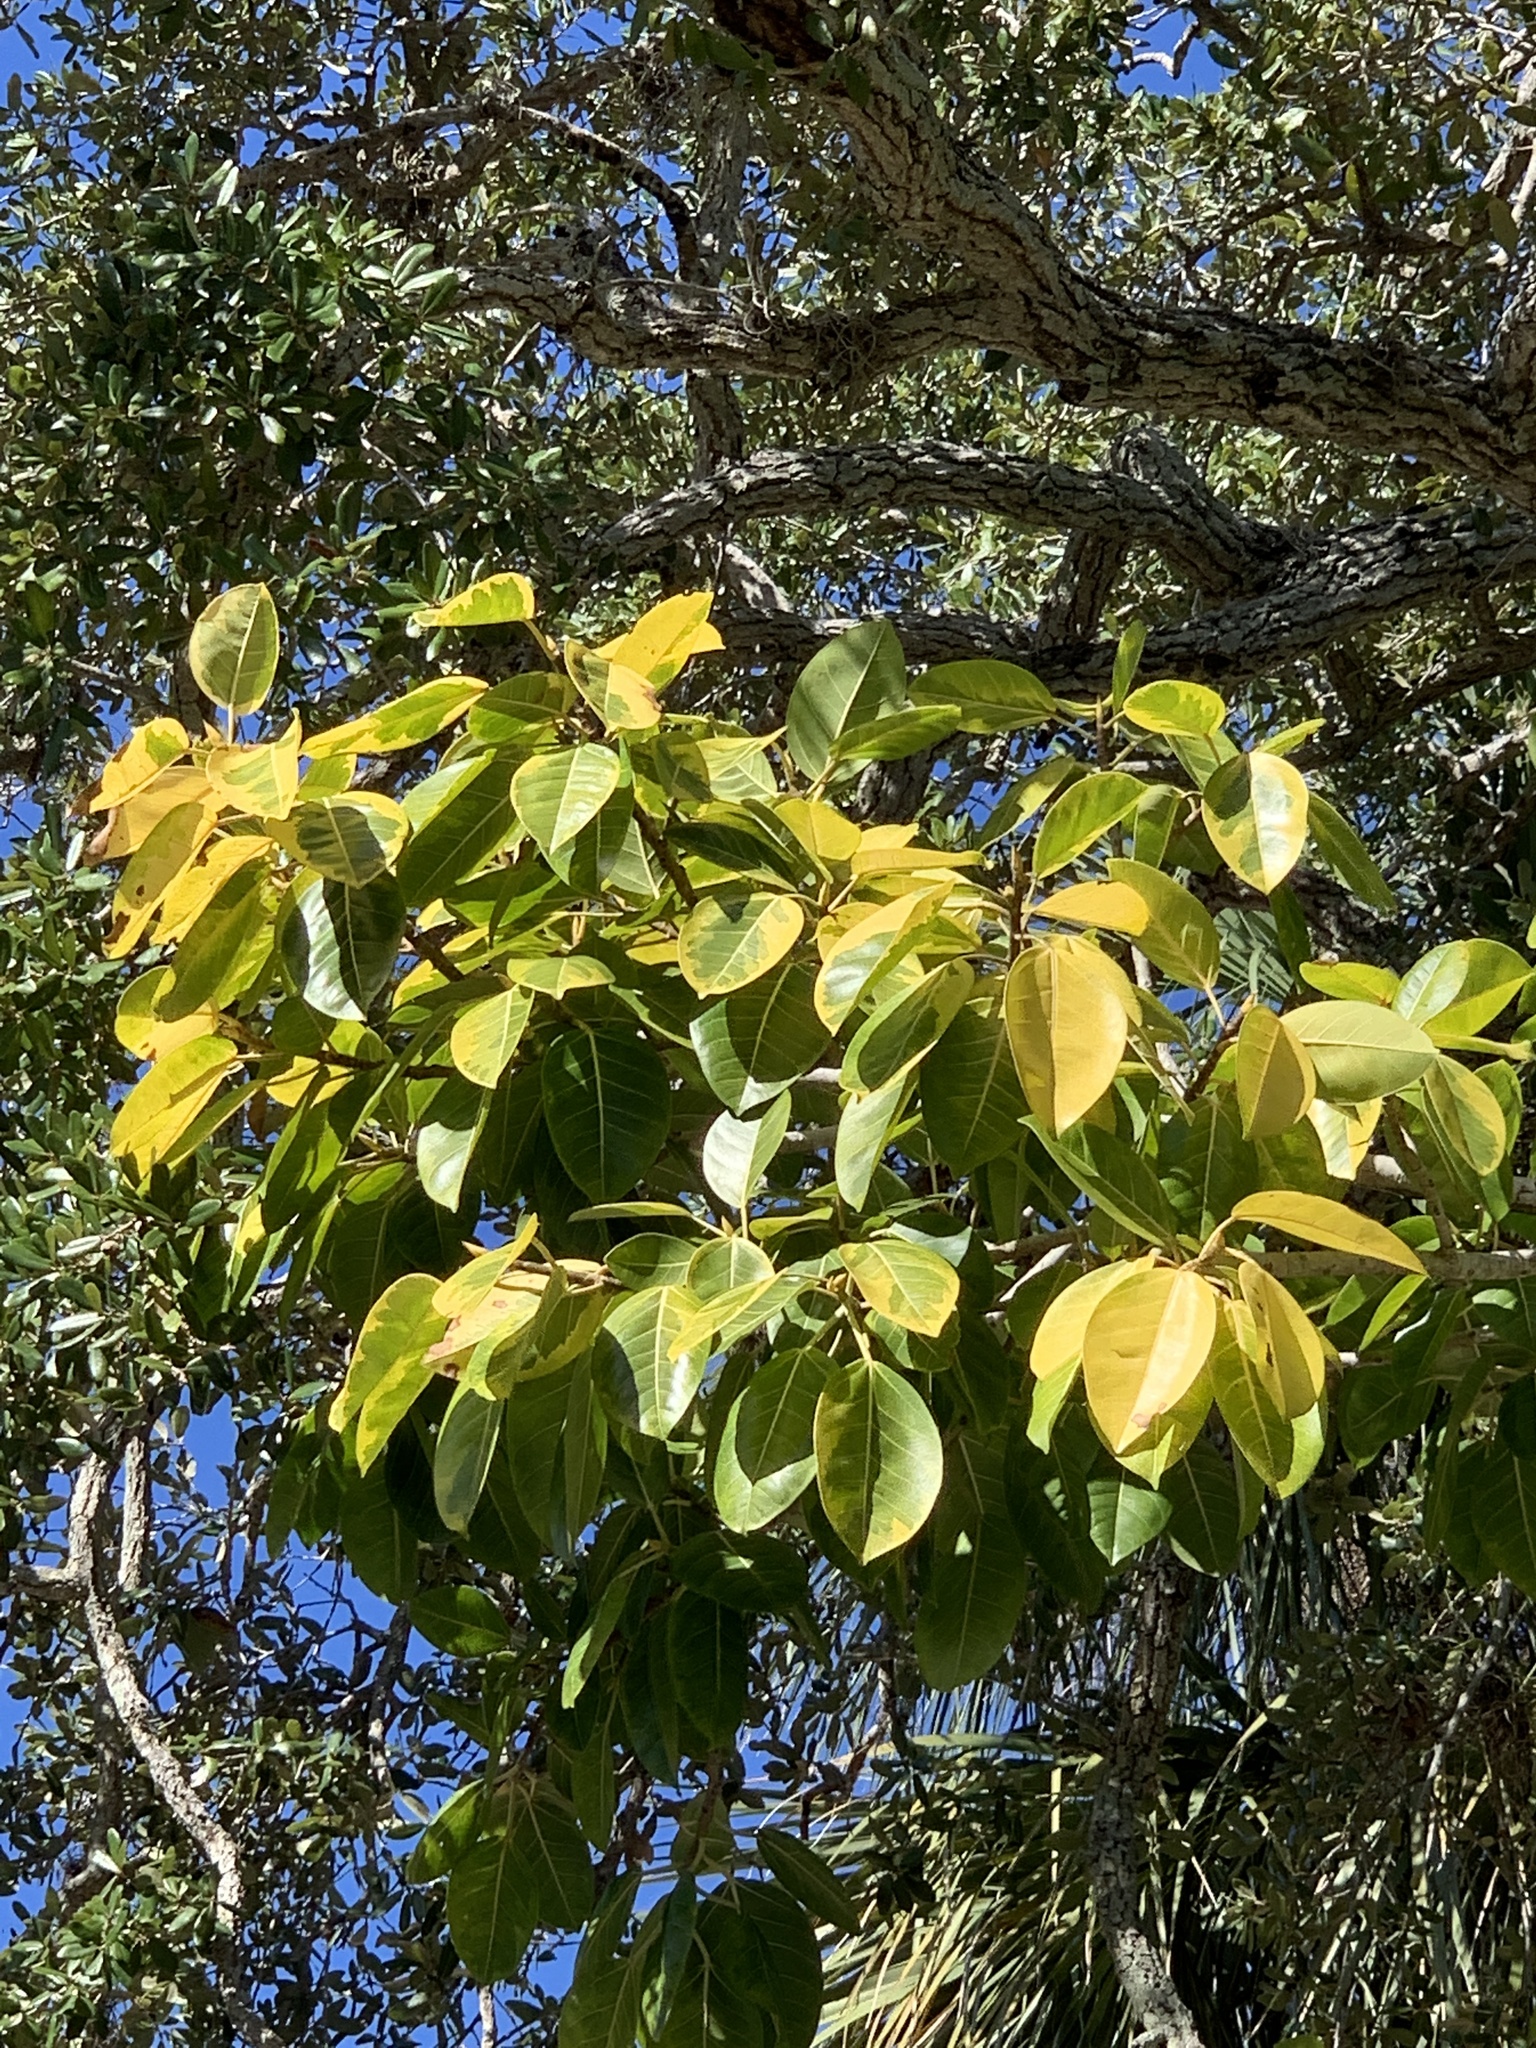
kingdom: Plantae
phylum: Tracheophyta
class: Magnoliopsida
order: Rosales
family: Moraceae
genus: Ficus
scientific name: Ficus altissima
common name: Council tree
